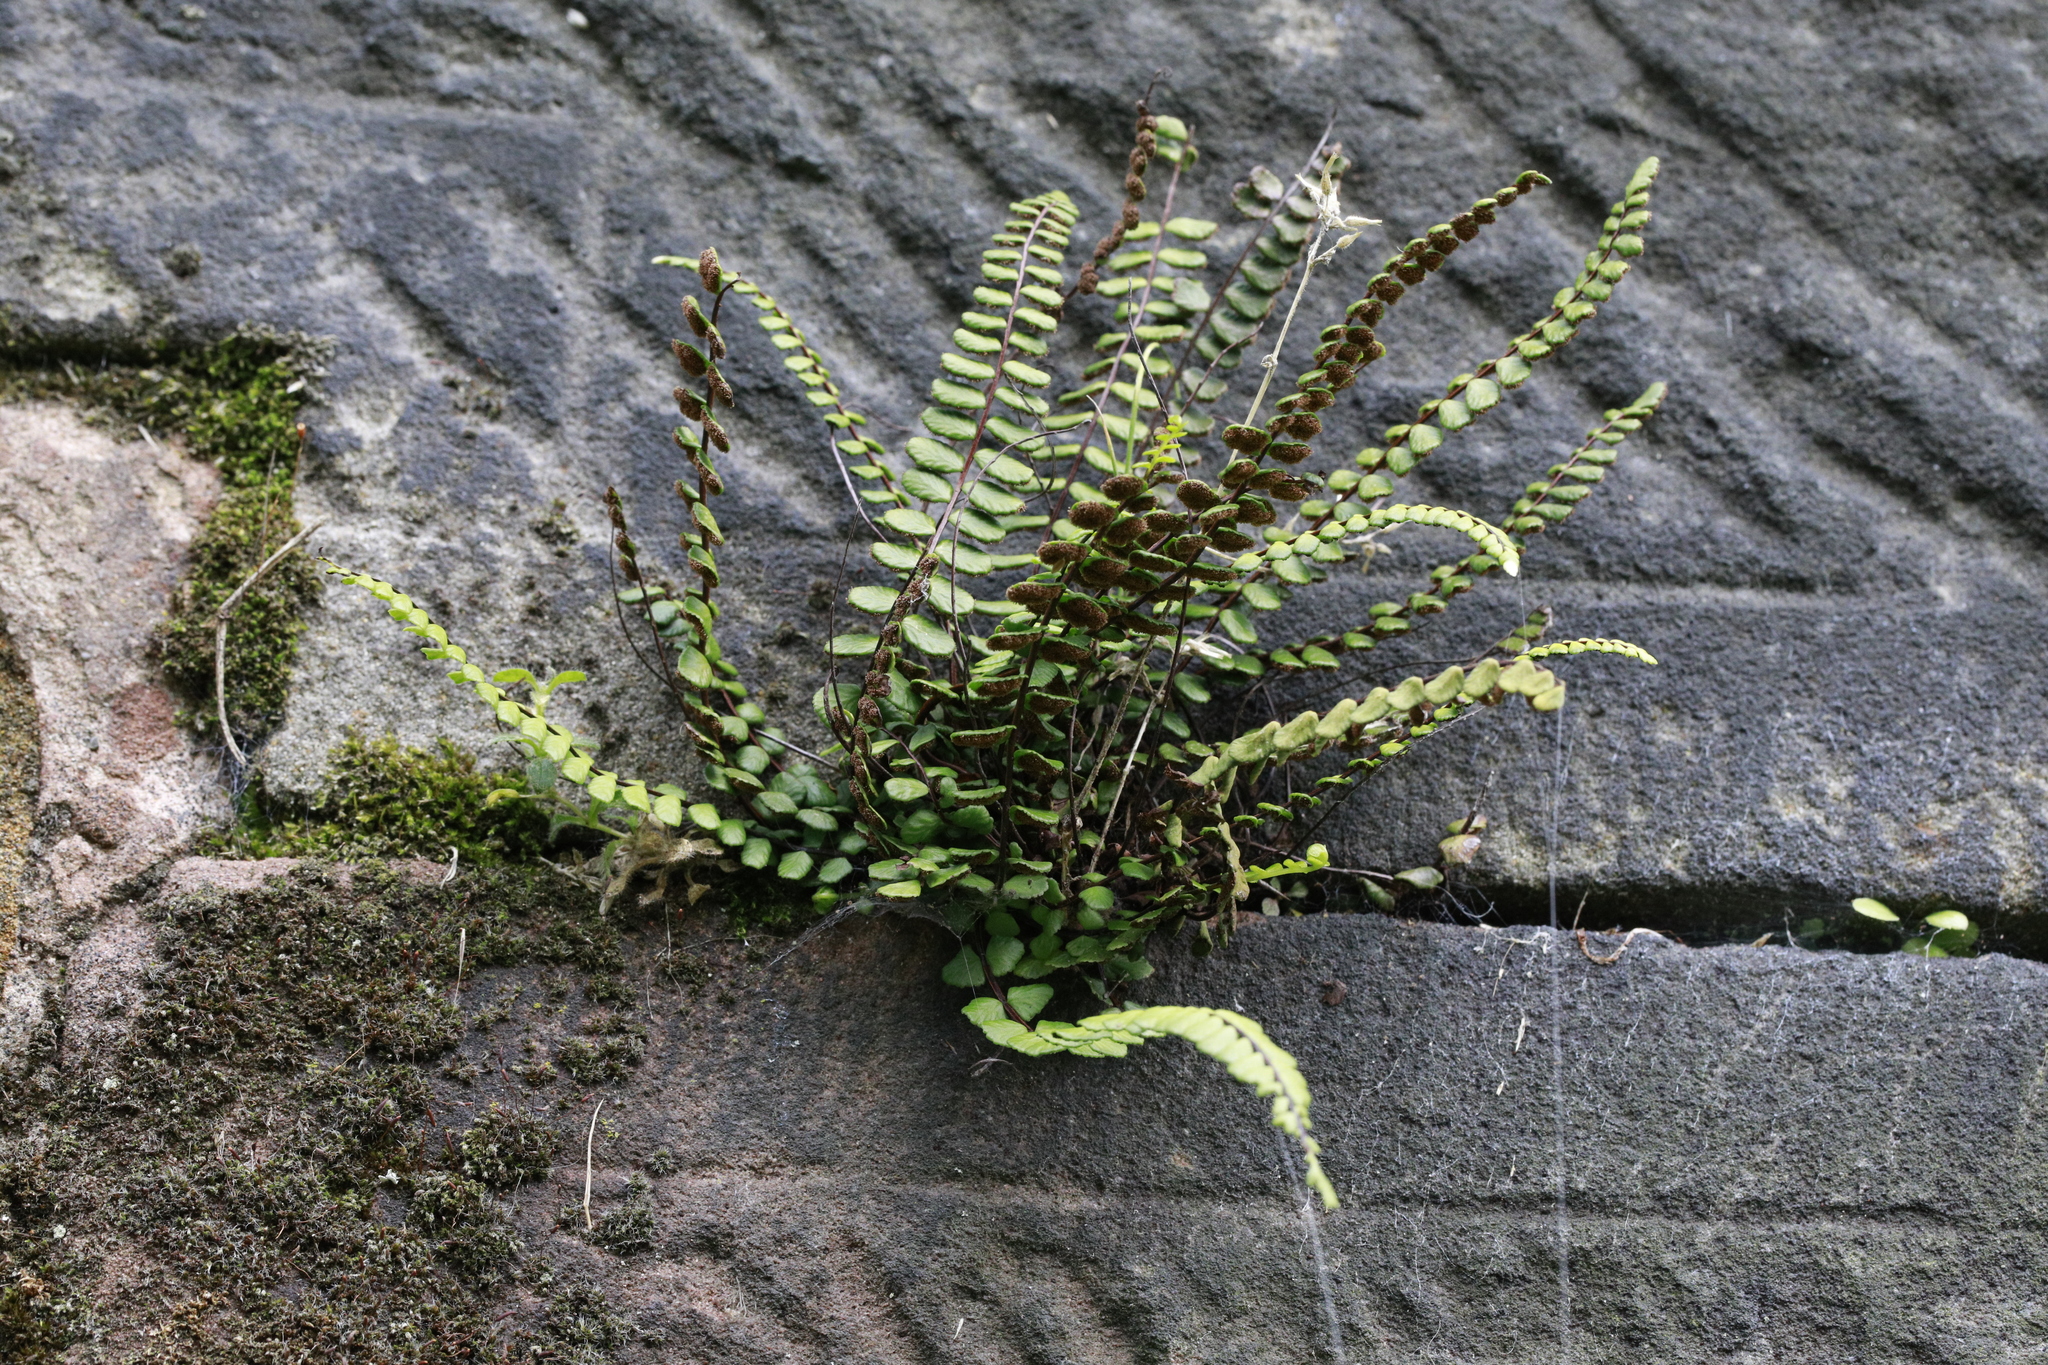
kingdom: Plantae
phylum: Tracheophyta
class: Polypodiopsida
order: Polypodiales
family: Aspleniaceae
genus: Asplenium
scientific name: Asplenium trichomanes
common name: Maidenhair spleenwort
